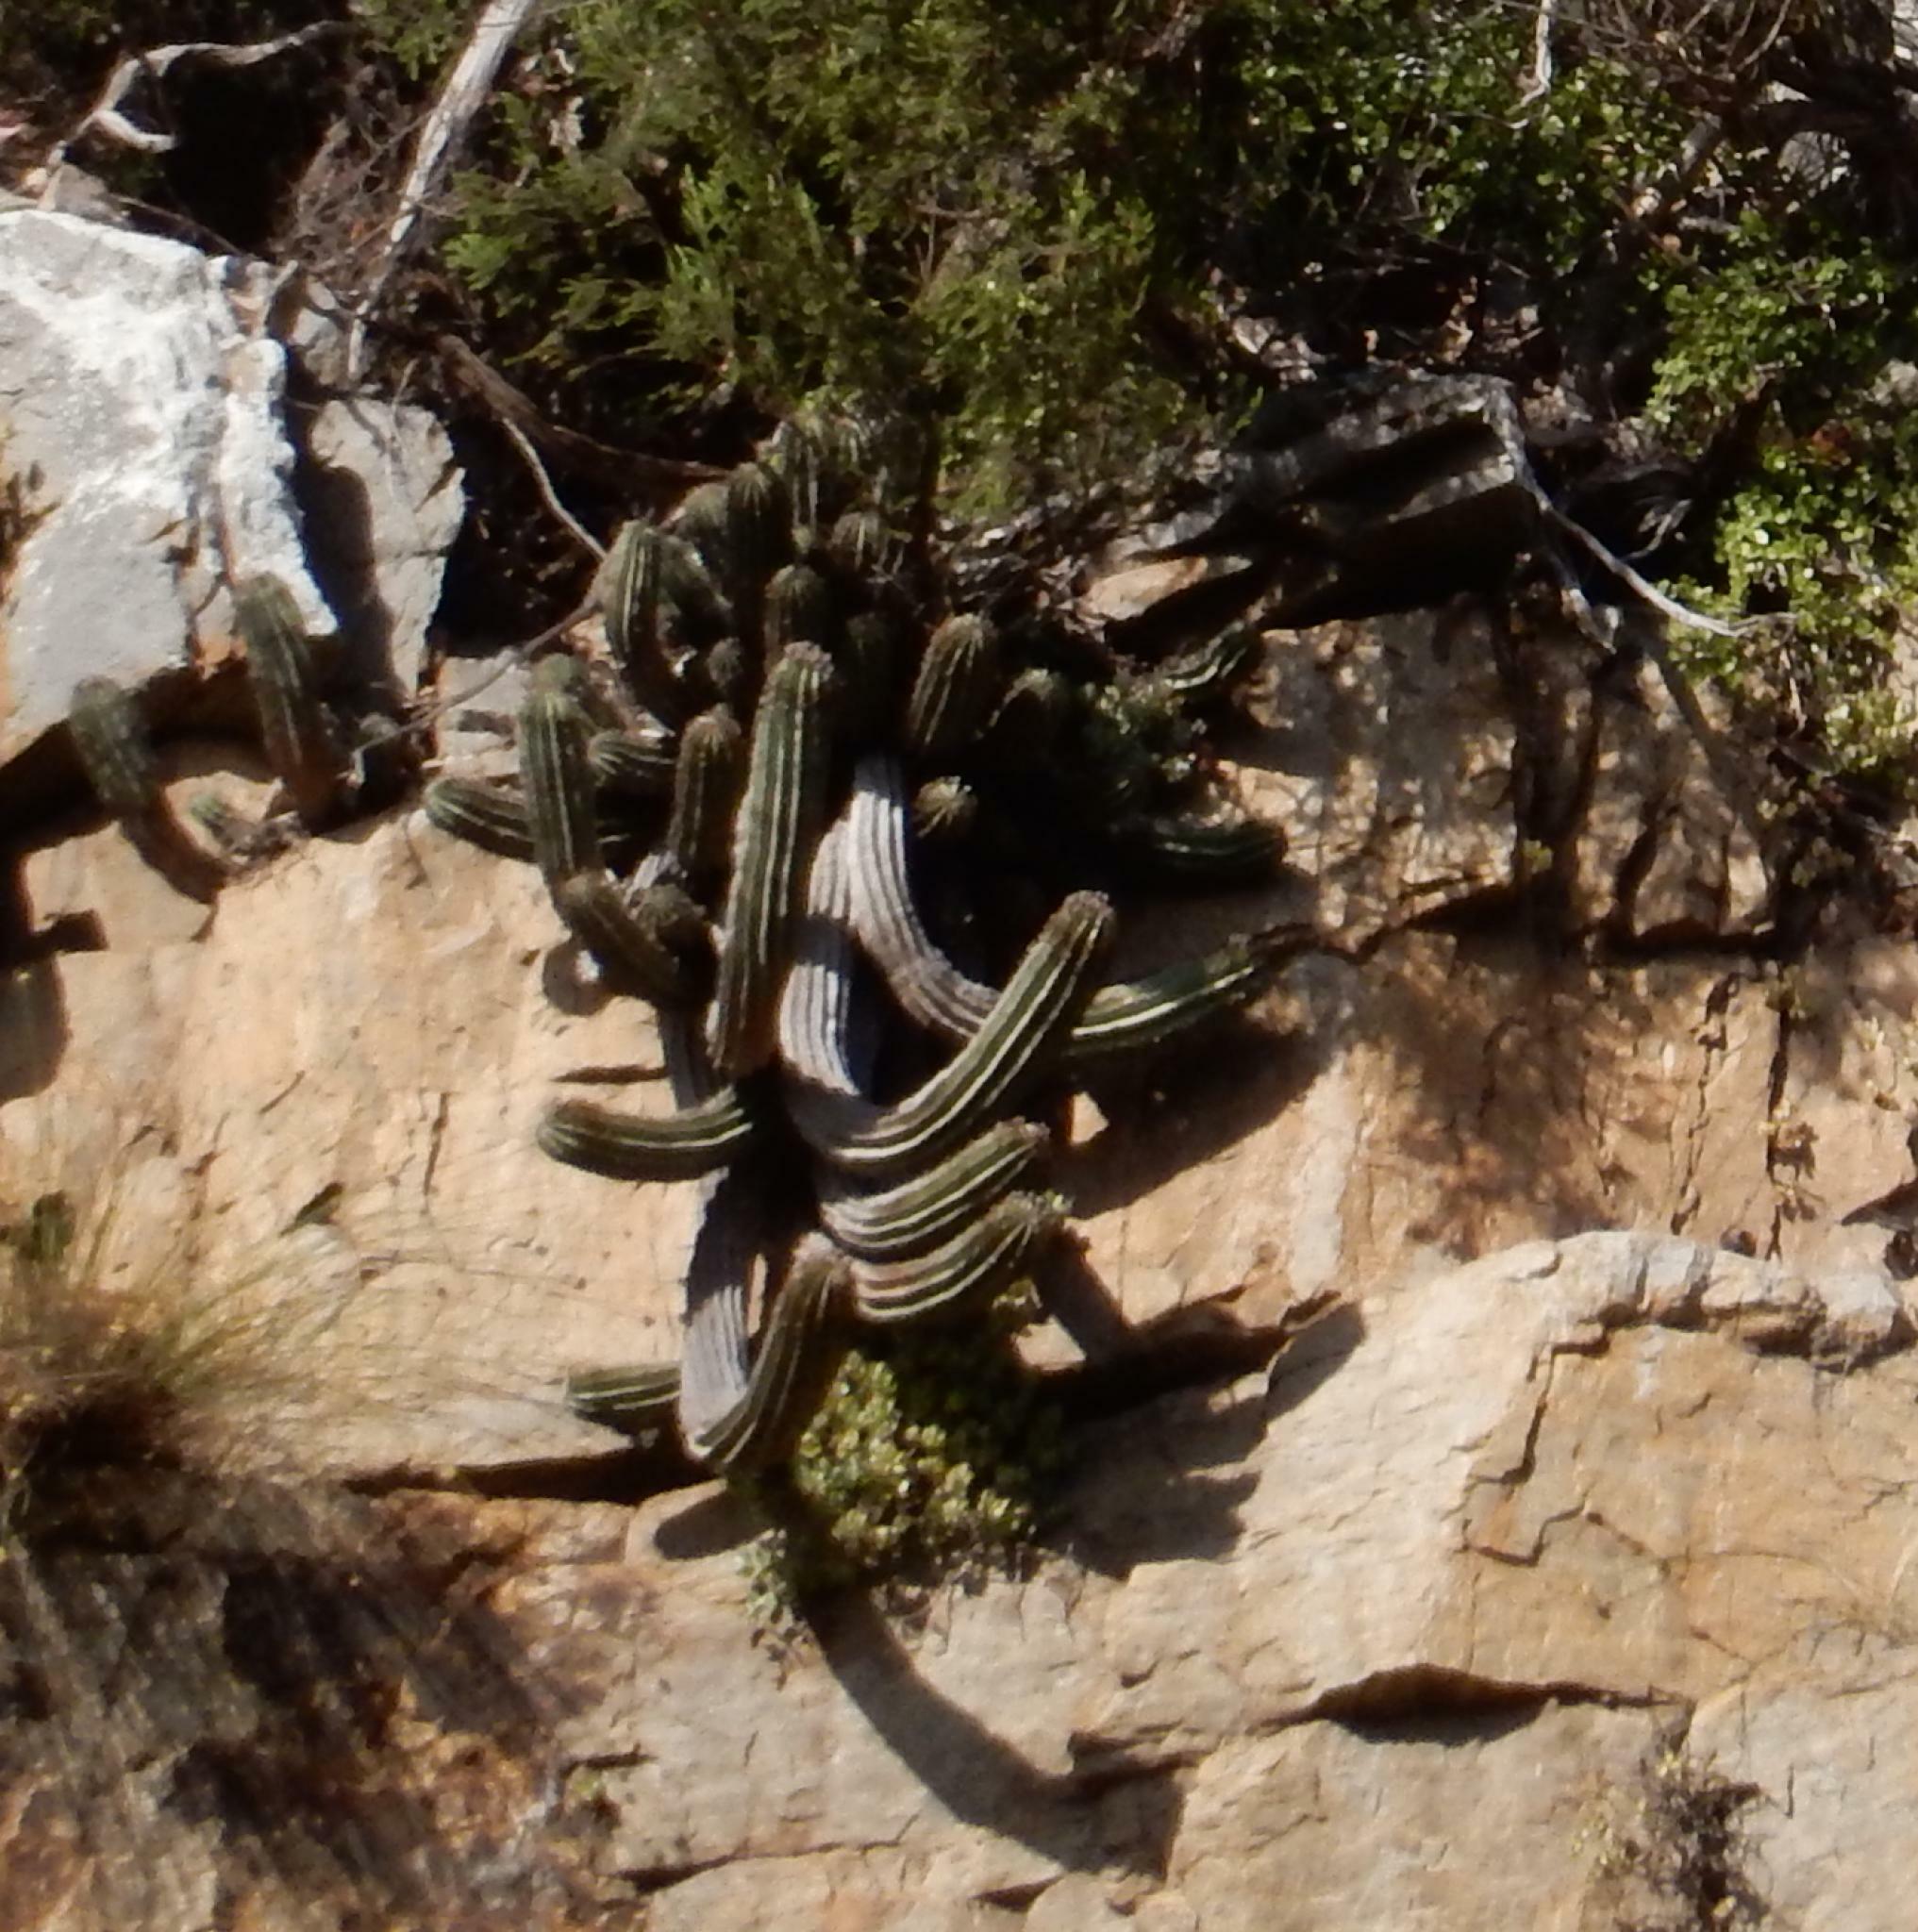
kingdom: Plantae
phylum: Tracheophyta
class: Magnoliopsida
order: Malpighiales
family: Euphorbiaceae
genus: Euphorbia
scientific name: Euphorbia polygona
